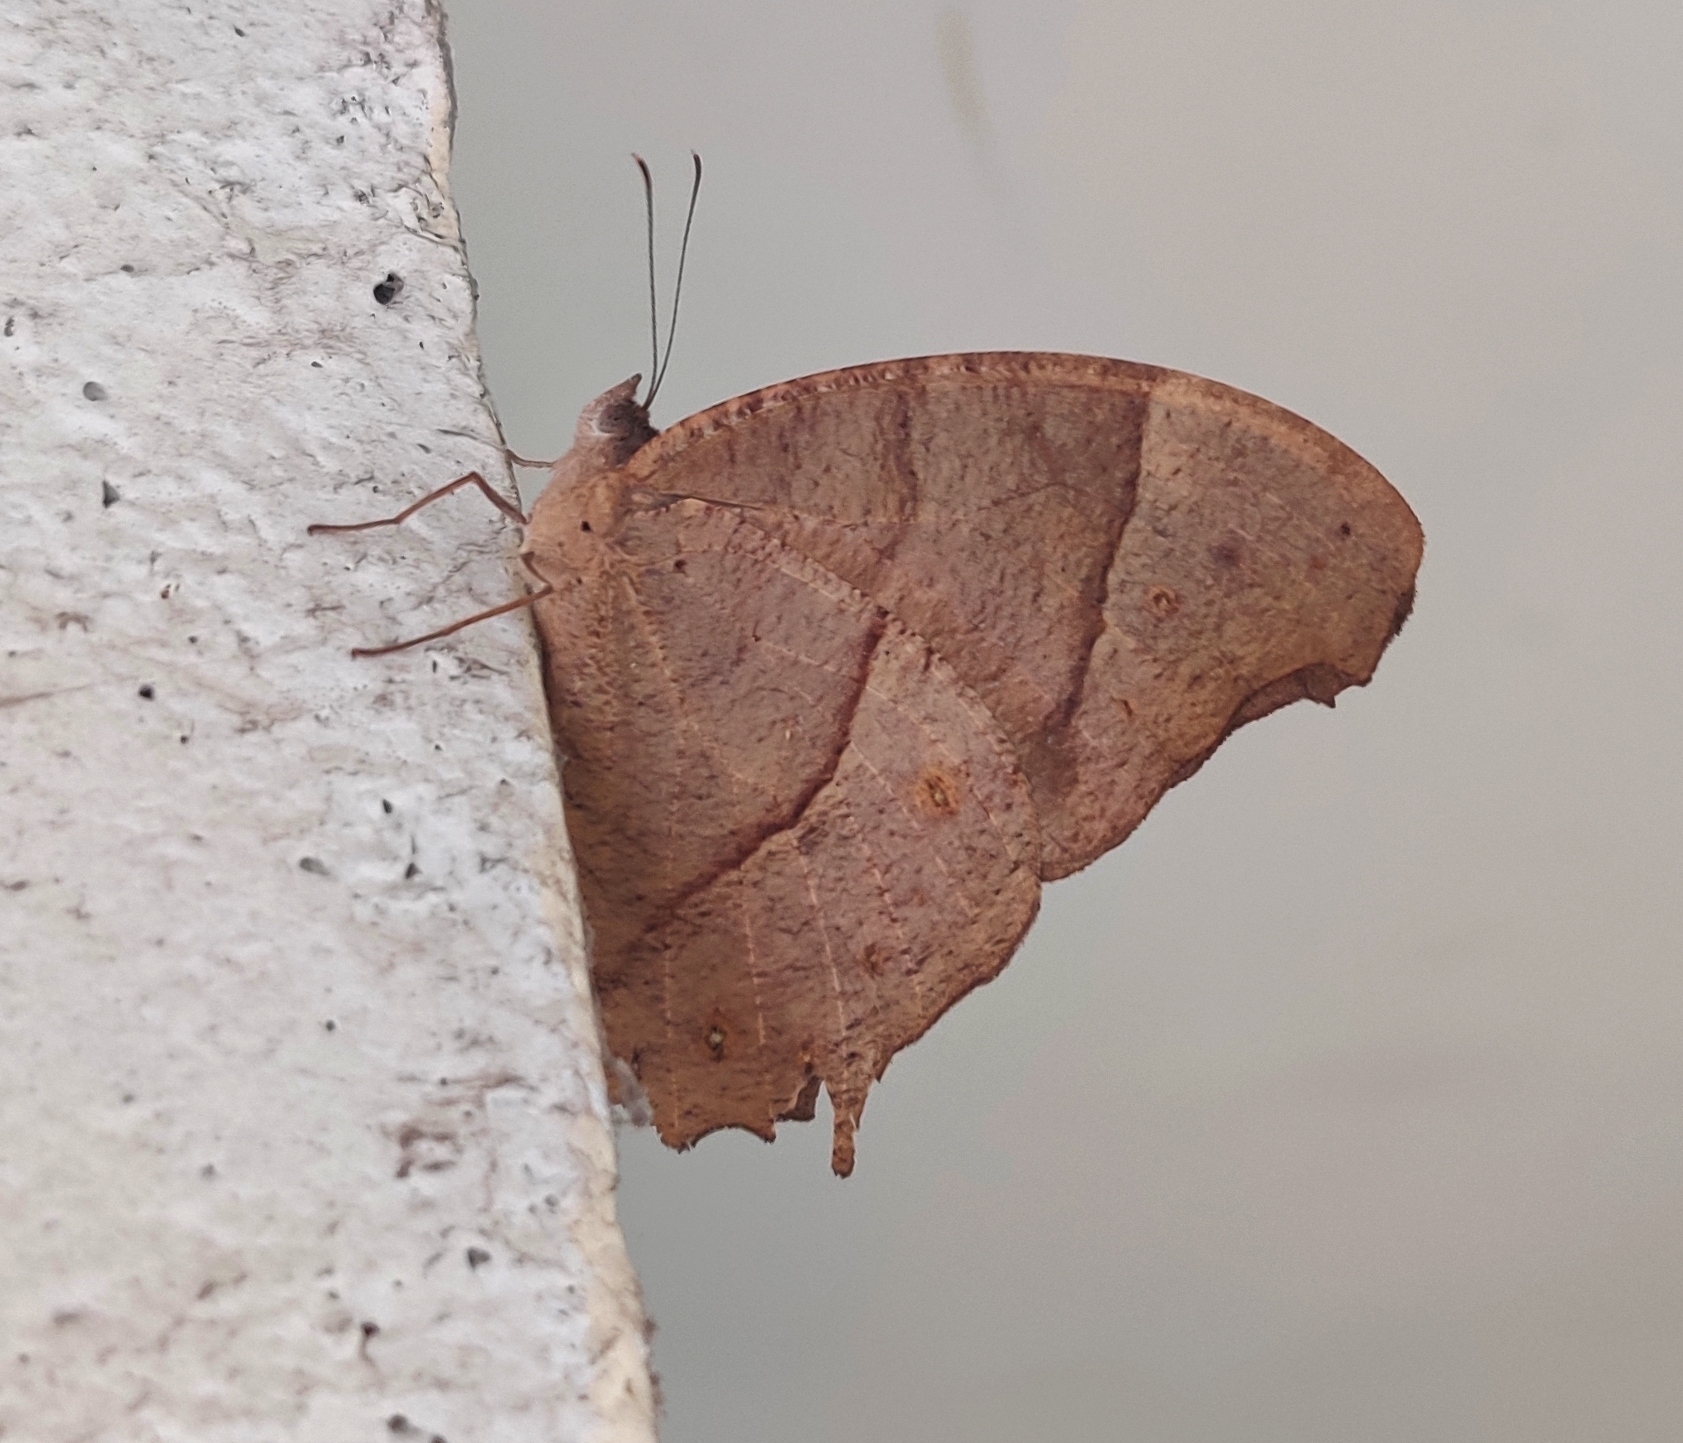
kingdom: Animalia
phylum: Arthropoda
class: Insecta
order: Lepidoptera
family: Nymphalidae
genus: Melanitis
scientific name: Melanitis leda
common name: Twilight brown
